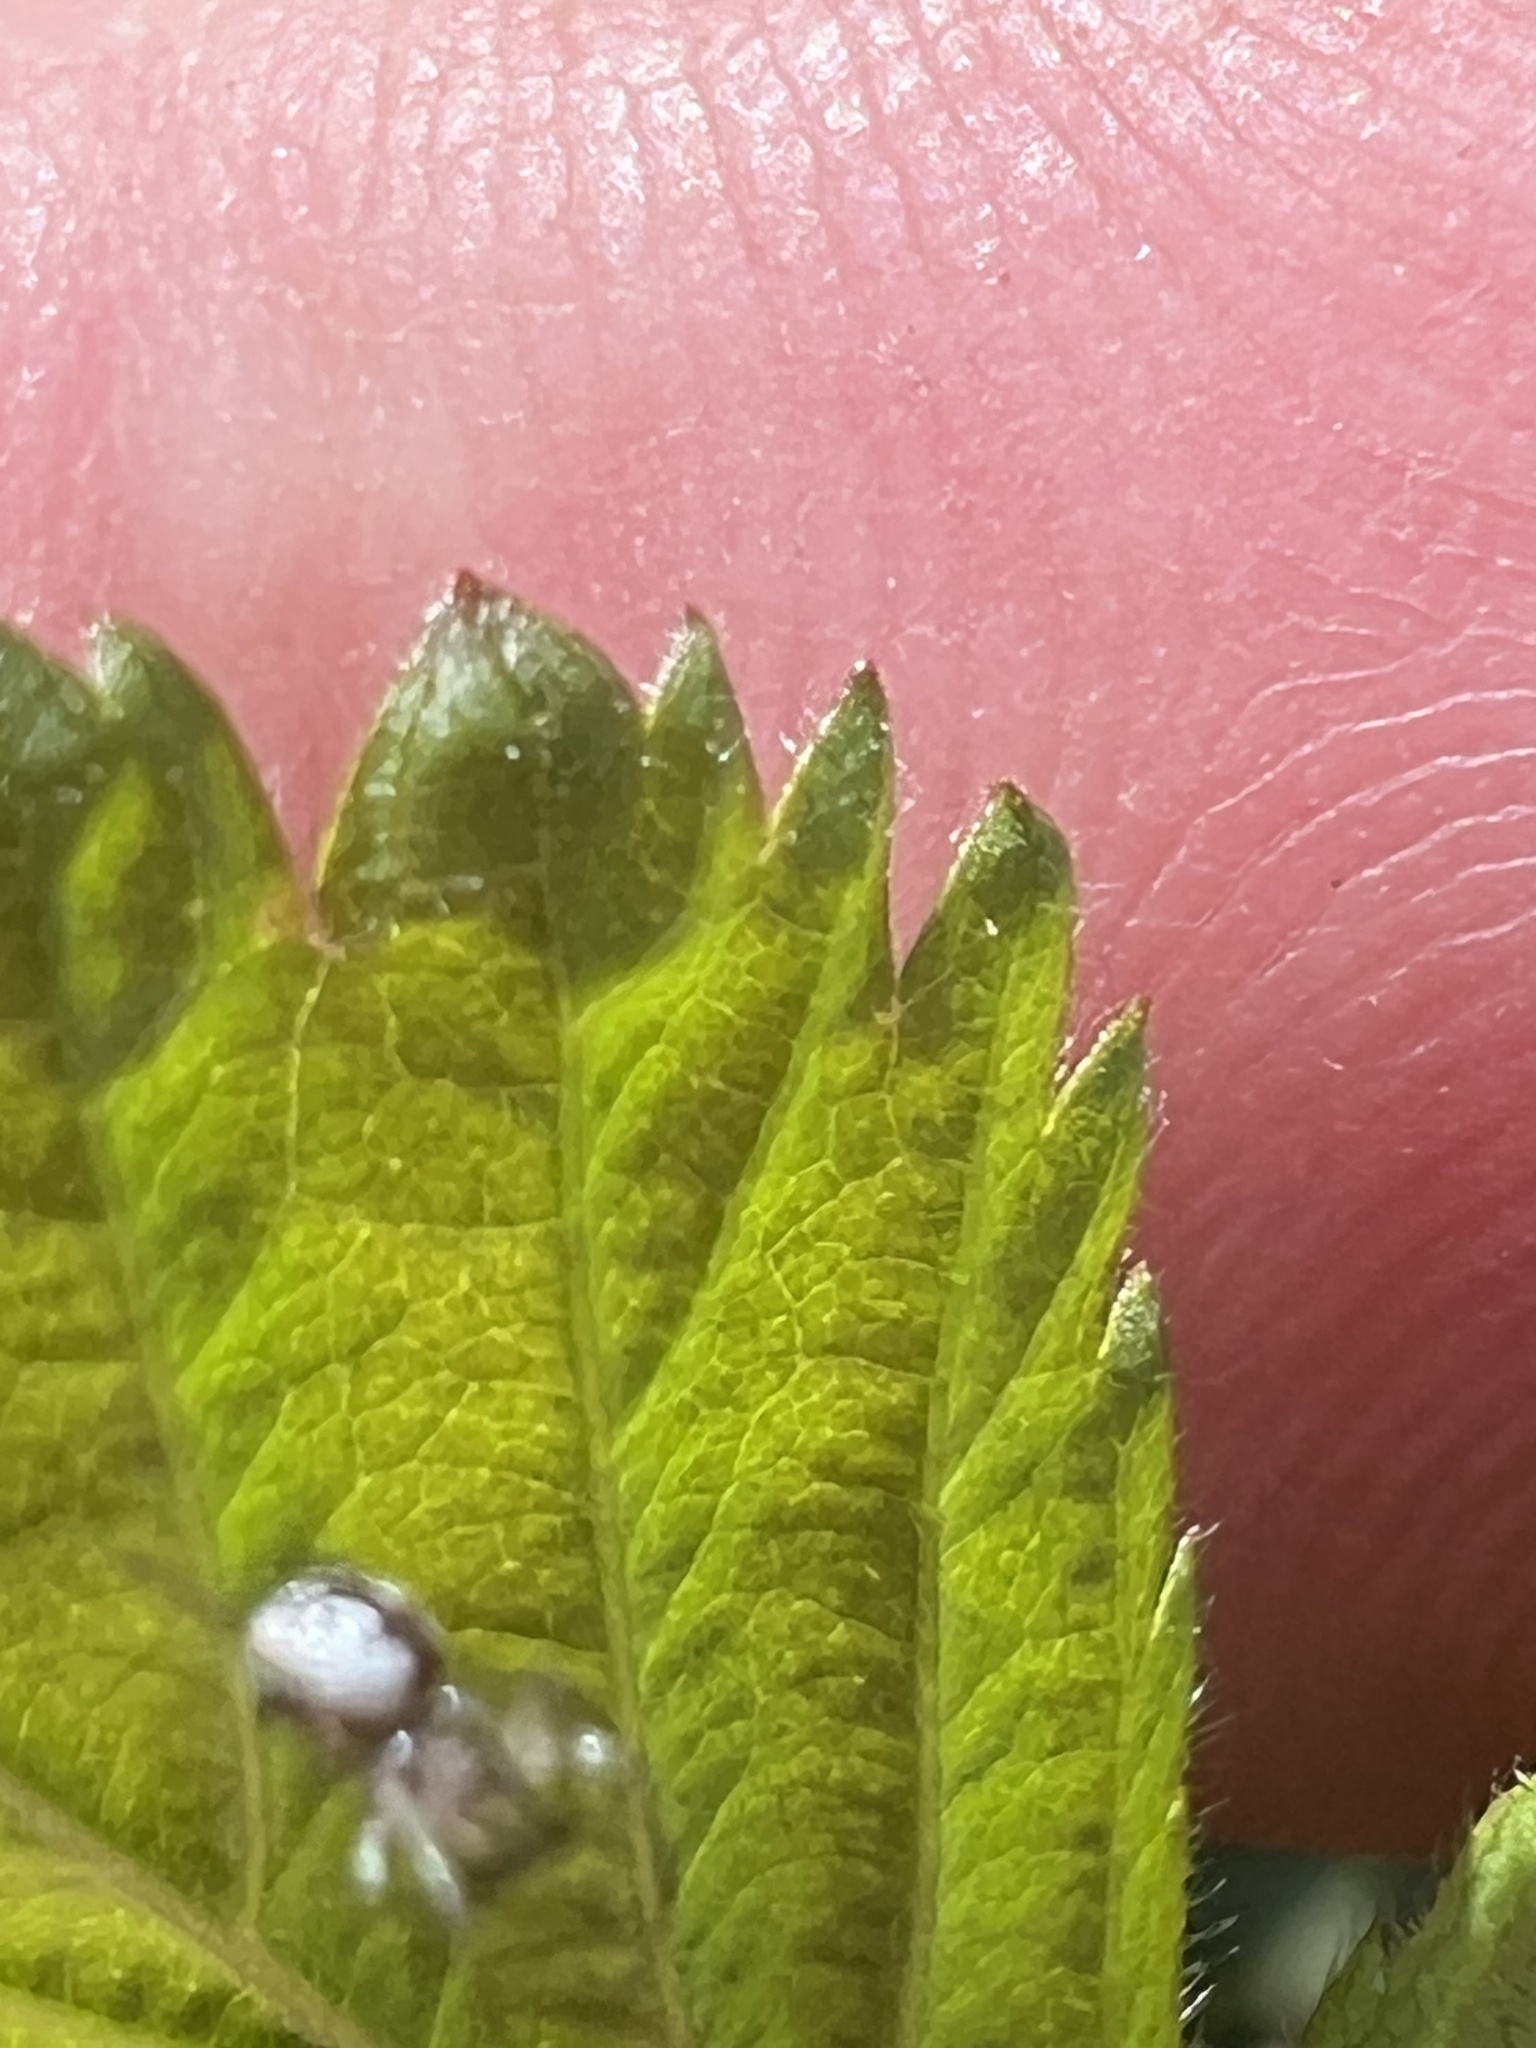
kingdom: Animalia
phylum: Arthropoda
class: Arachnida
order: Araneae
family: Tetragnathidae
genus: Leucauge
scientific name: Leucauge venusta
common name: Longjawed orb weavers
